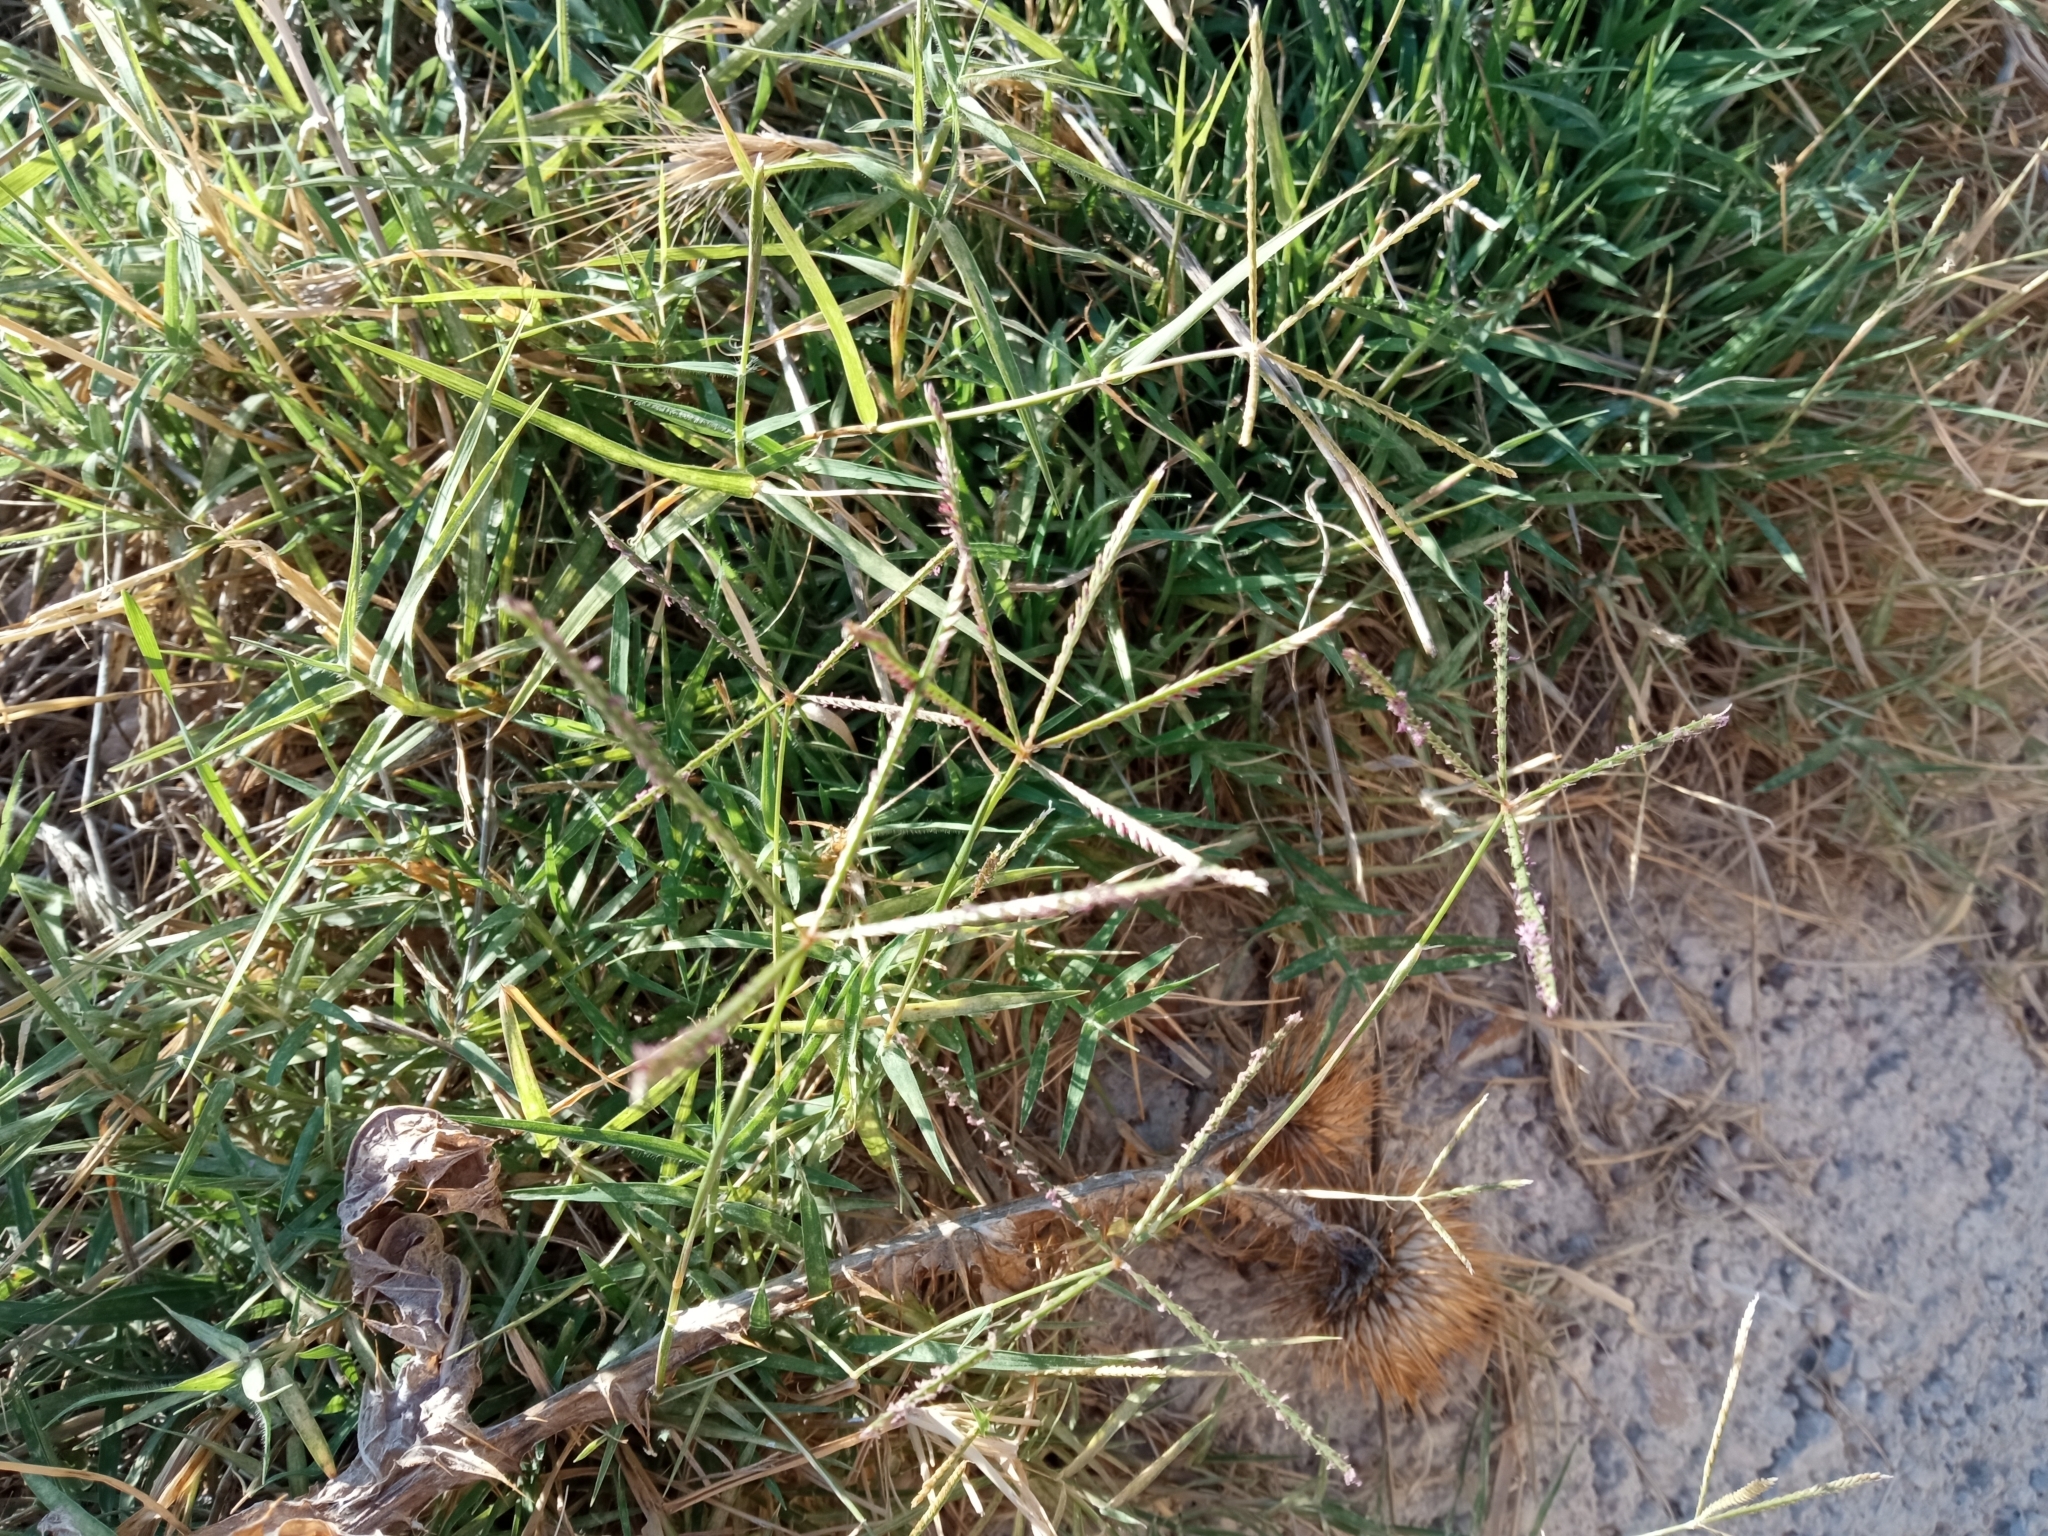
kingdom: Plantae
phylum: Tracheophyta
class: Liliopsida
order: Poales
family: Poaceae
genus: Cynodon
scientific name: Cynodon dactylon
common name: Bermuda grass
